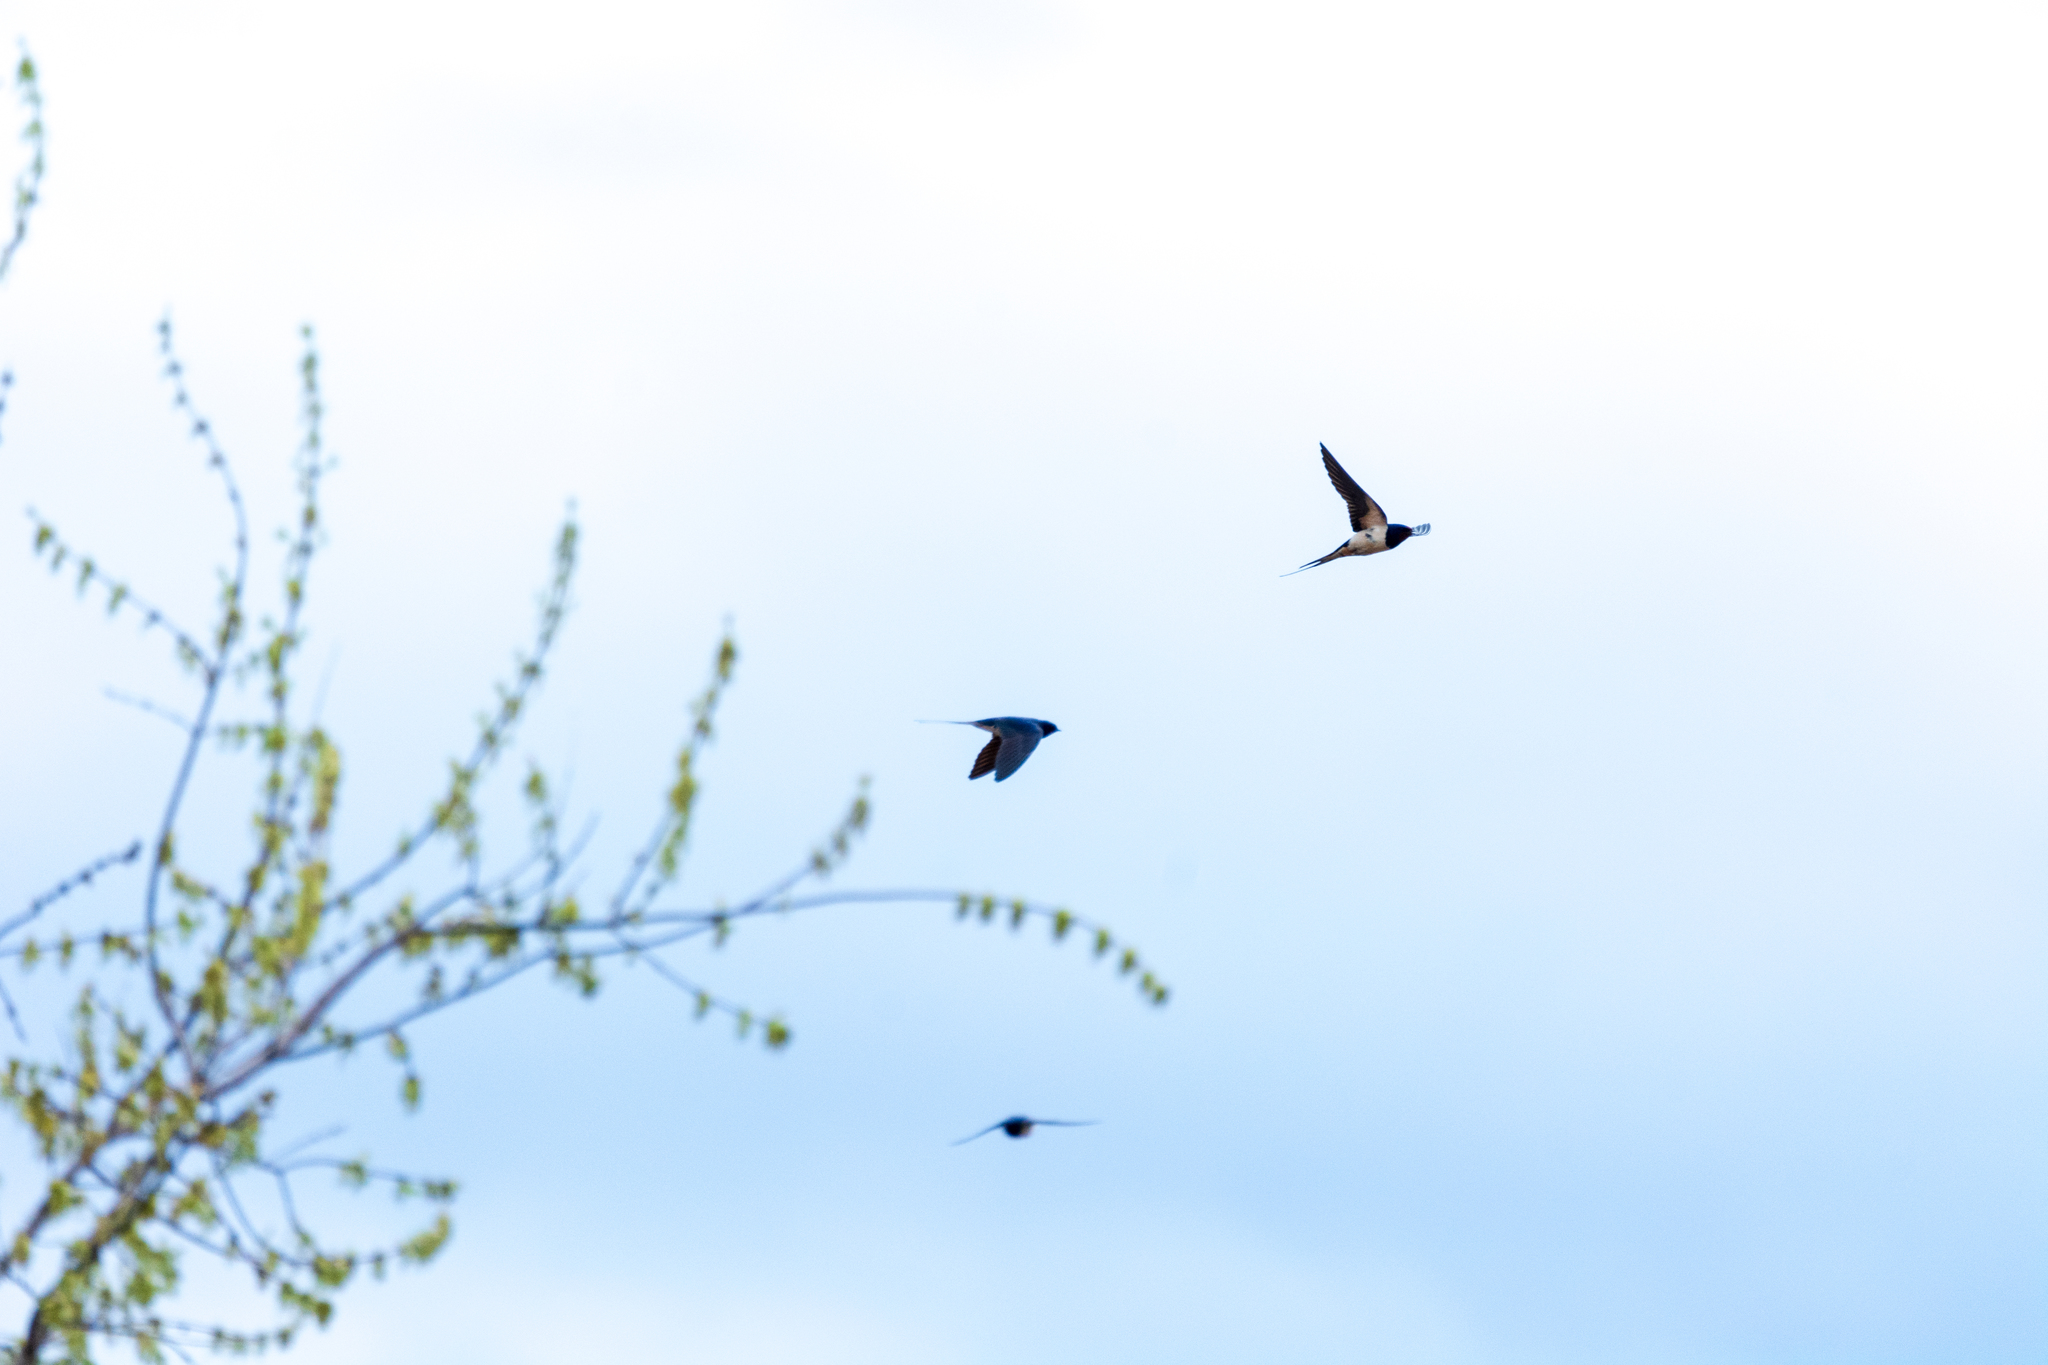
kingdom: Animalia
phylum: Chordata
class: Aves
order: Passeriformes
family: Hirundinidae
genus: Hirundo
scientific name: Hirundo rustica
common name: Barn swallow
